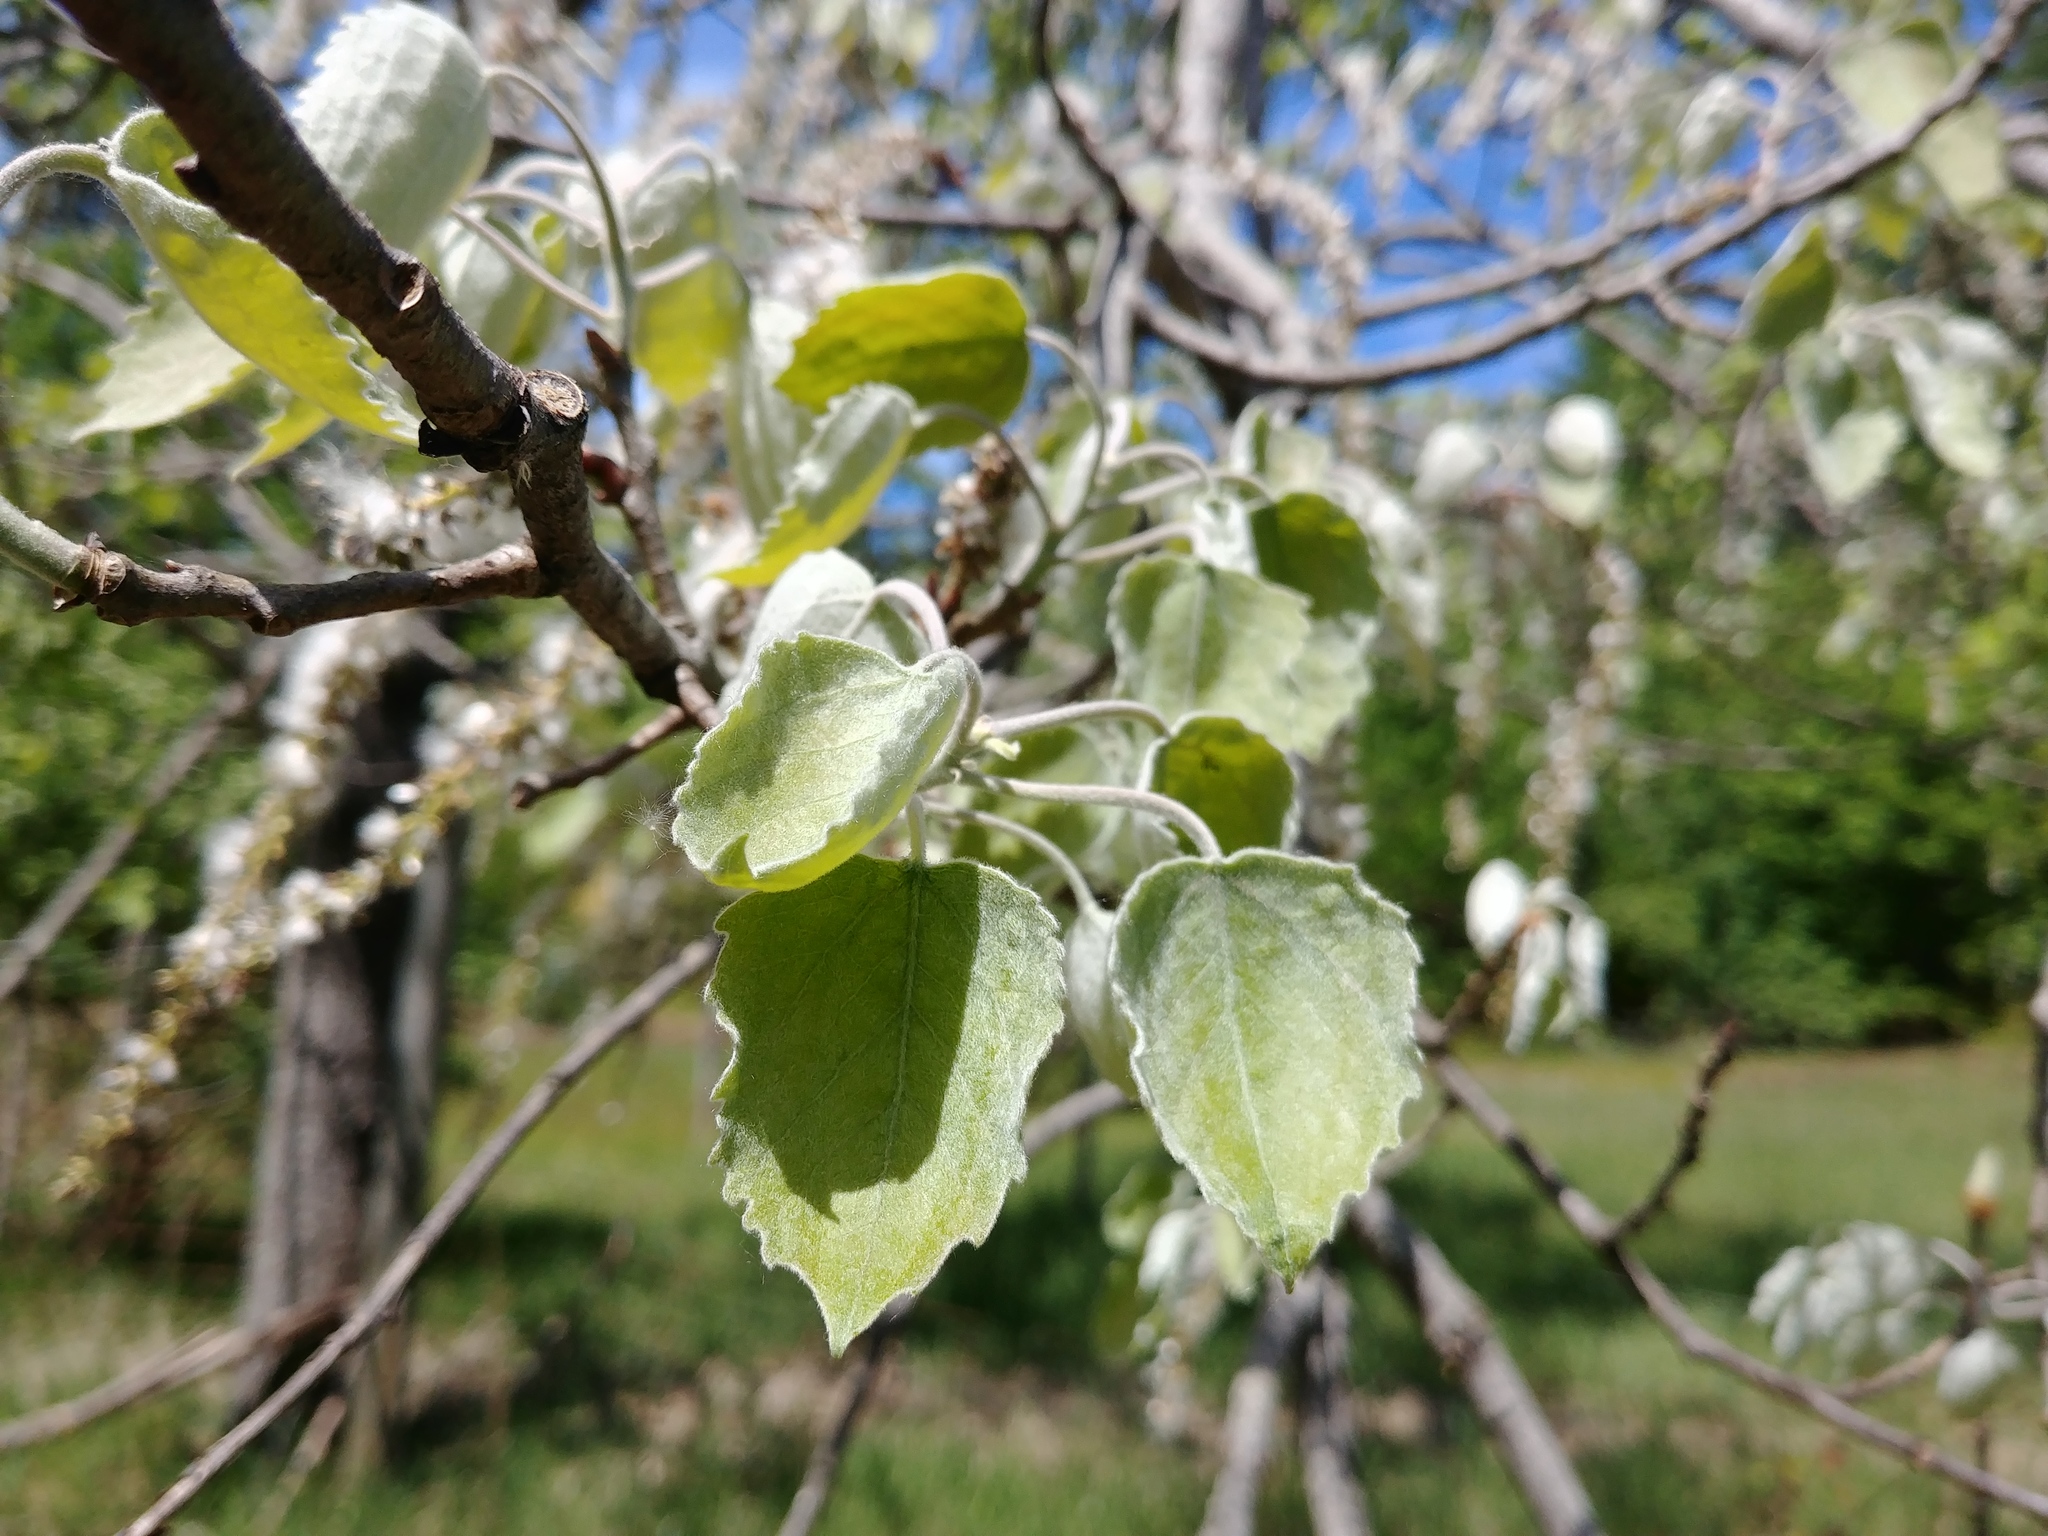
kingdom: Plantae
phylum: Tracheophyta
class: Magnoliopsida
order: Malpighiales
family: Salicaceae
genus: Populus
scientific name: Populus grandidentata
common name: Bigtooth aspen
